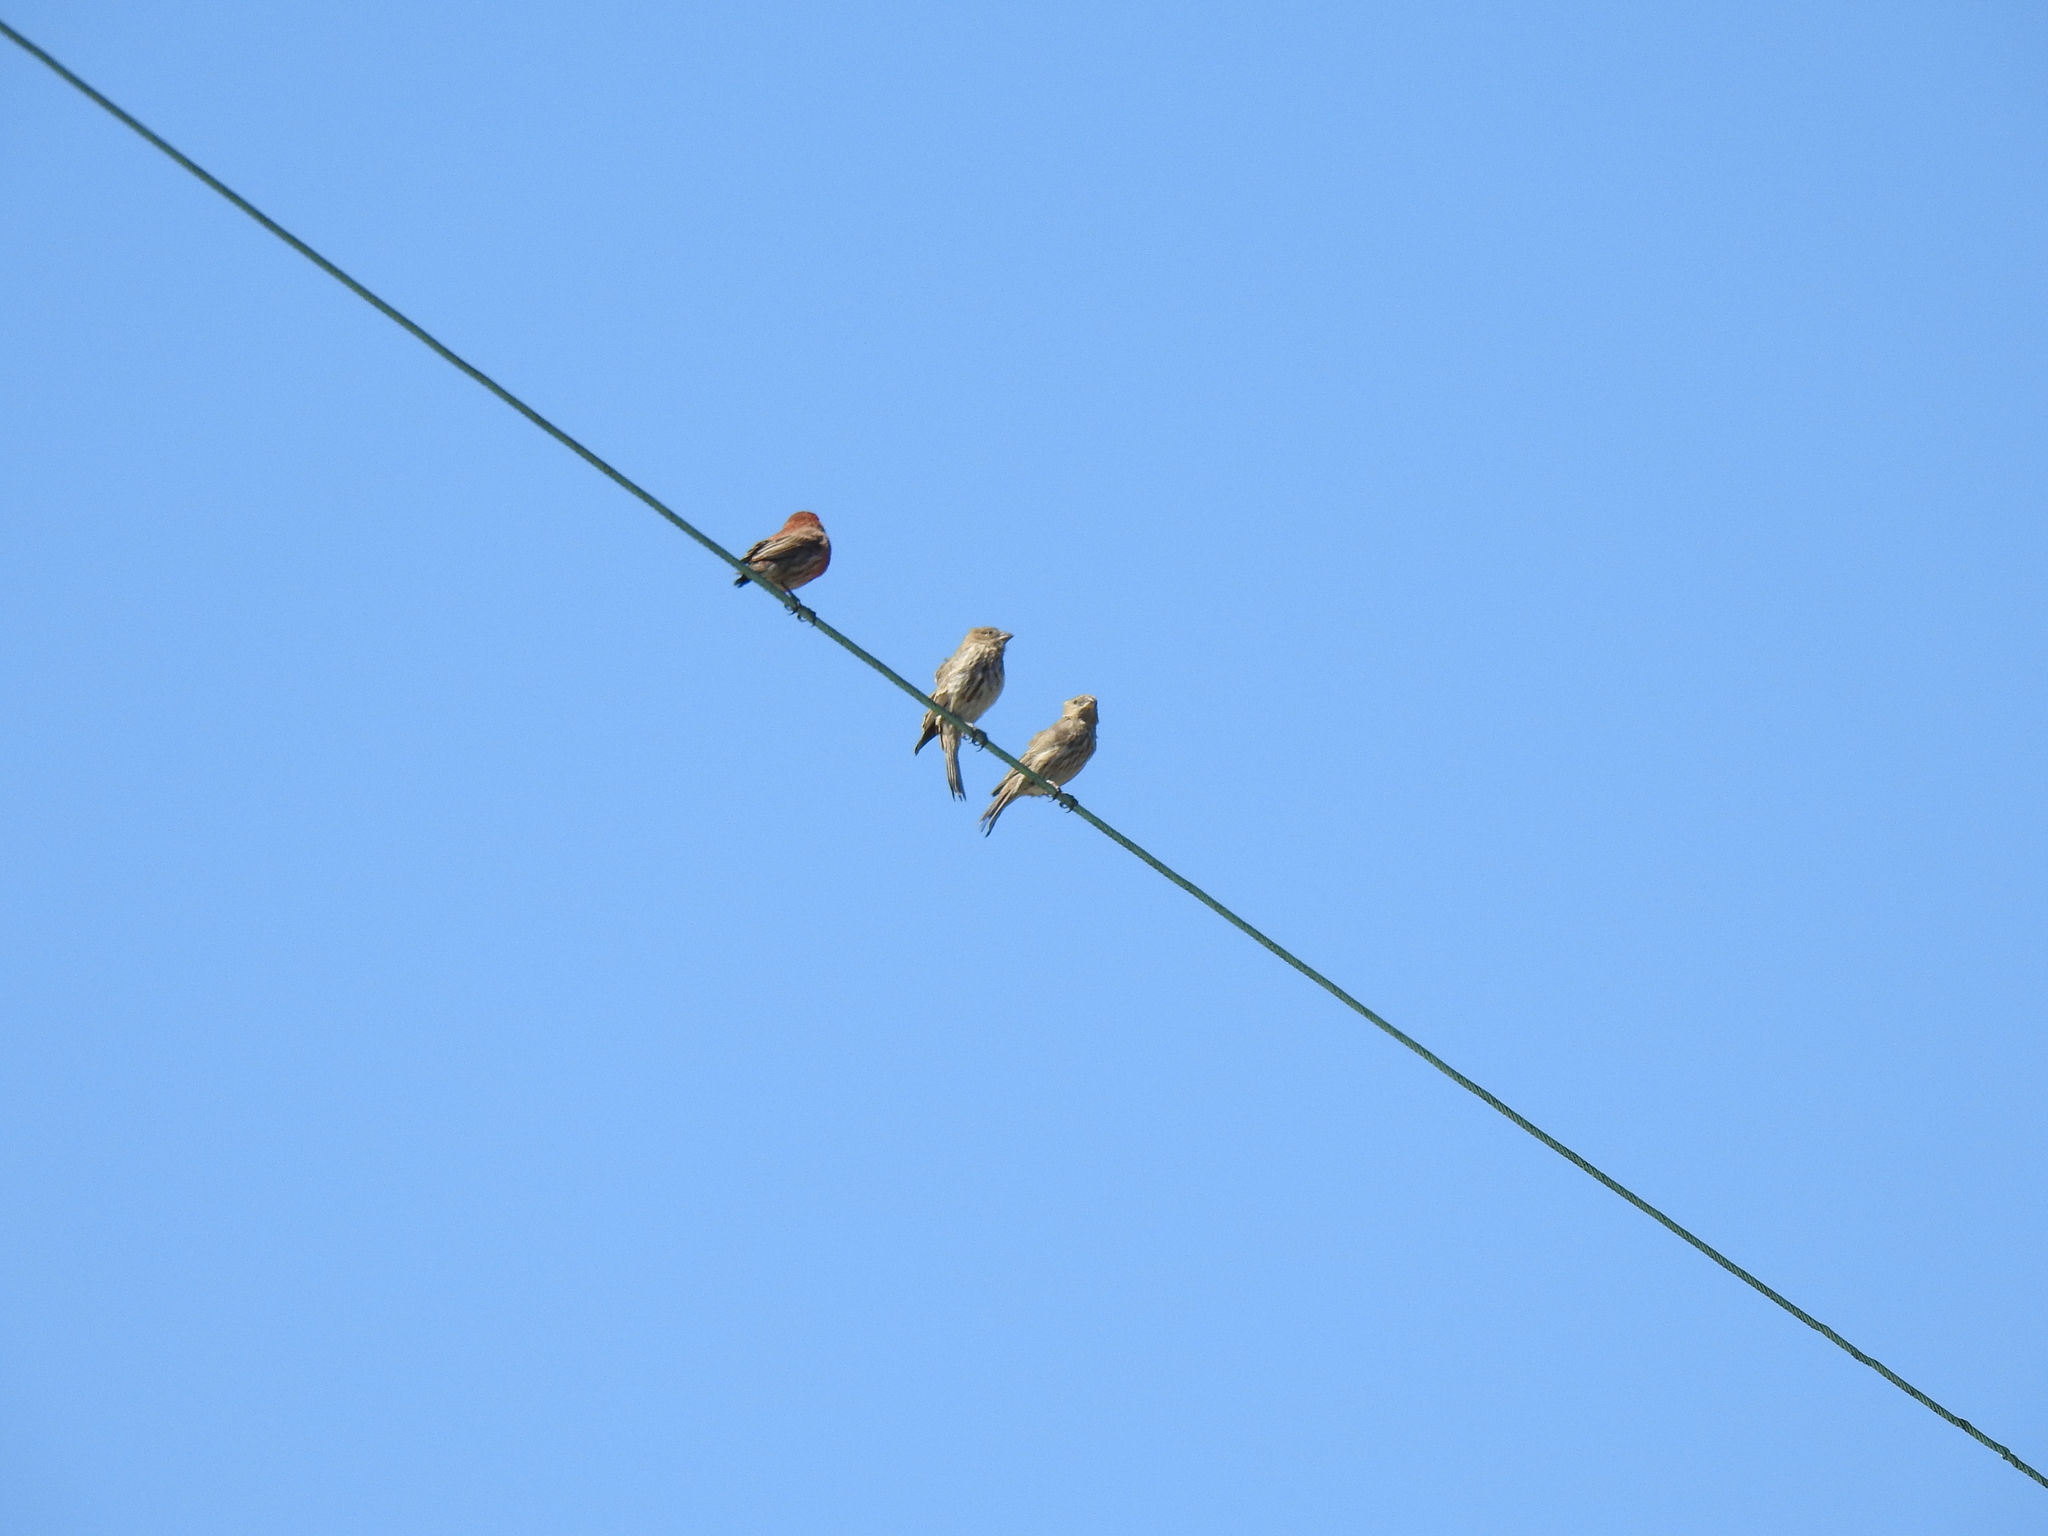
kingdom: Animalia
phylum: Chordata
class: Aves
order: Passeriformes
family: Fringillidae
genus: Haemorhous
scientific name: Haemorhous mexicanus
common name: House finch
